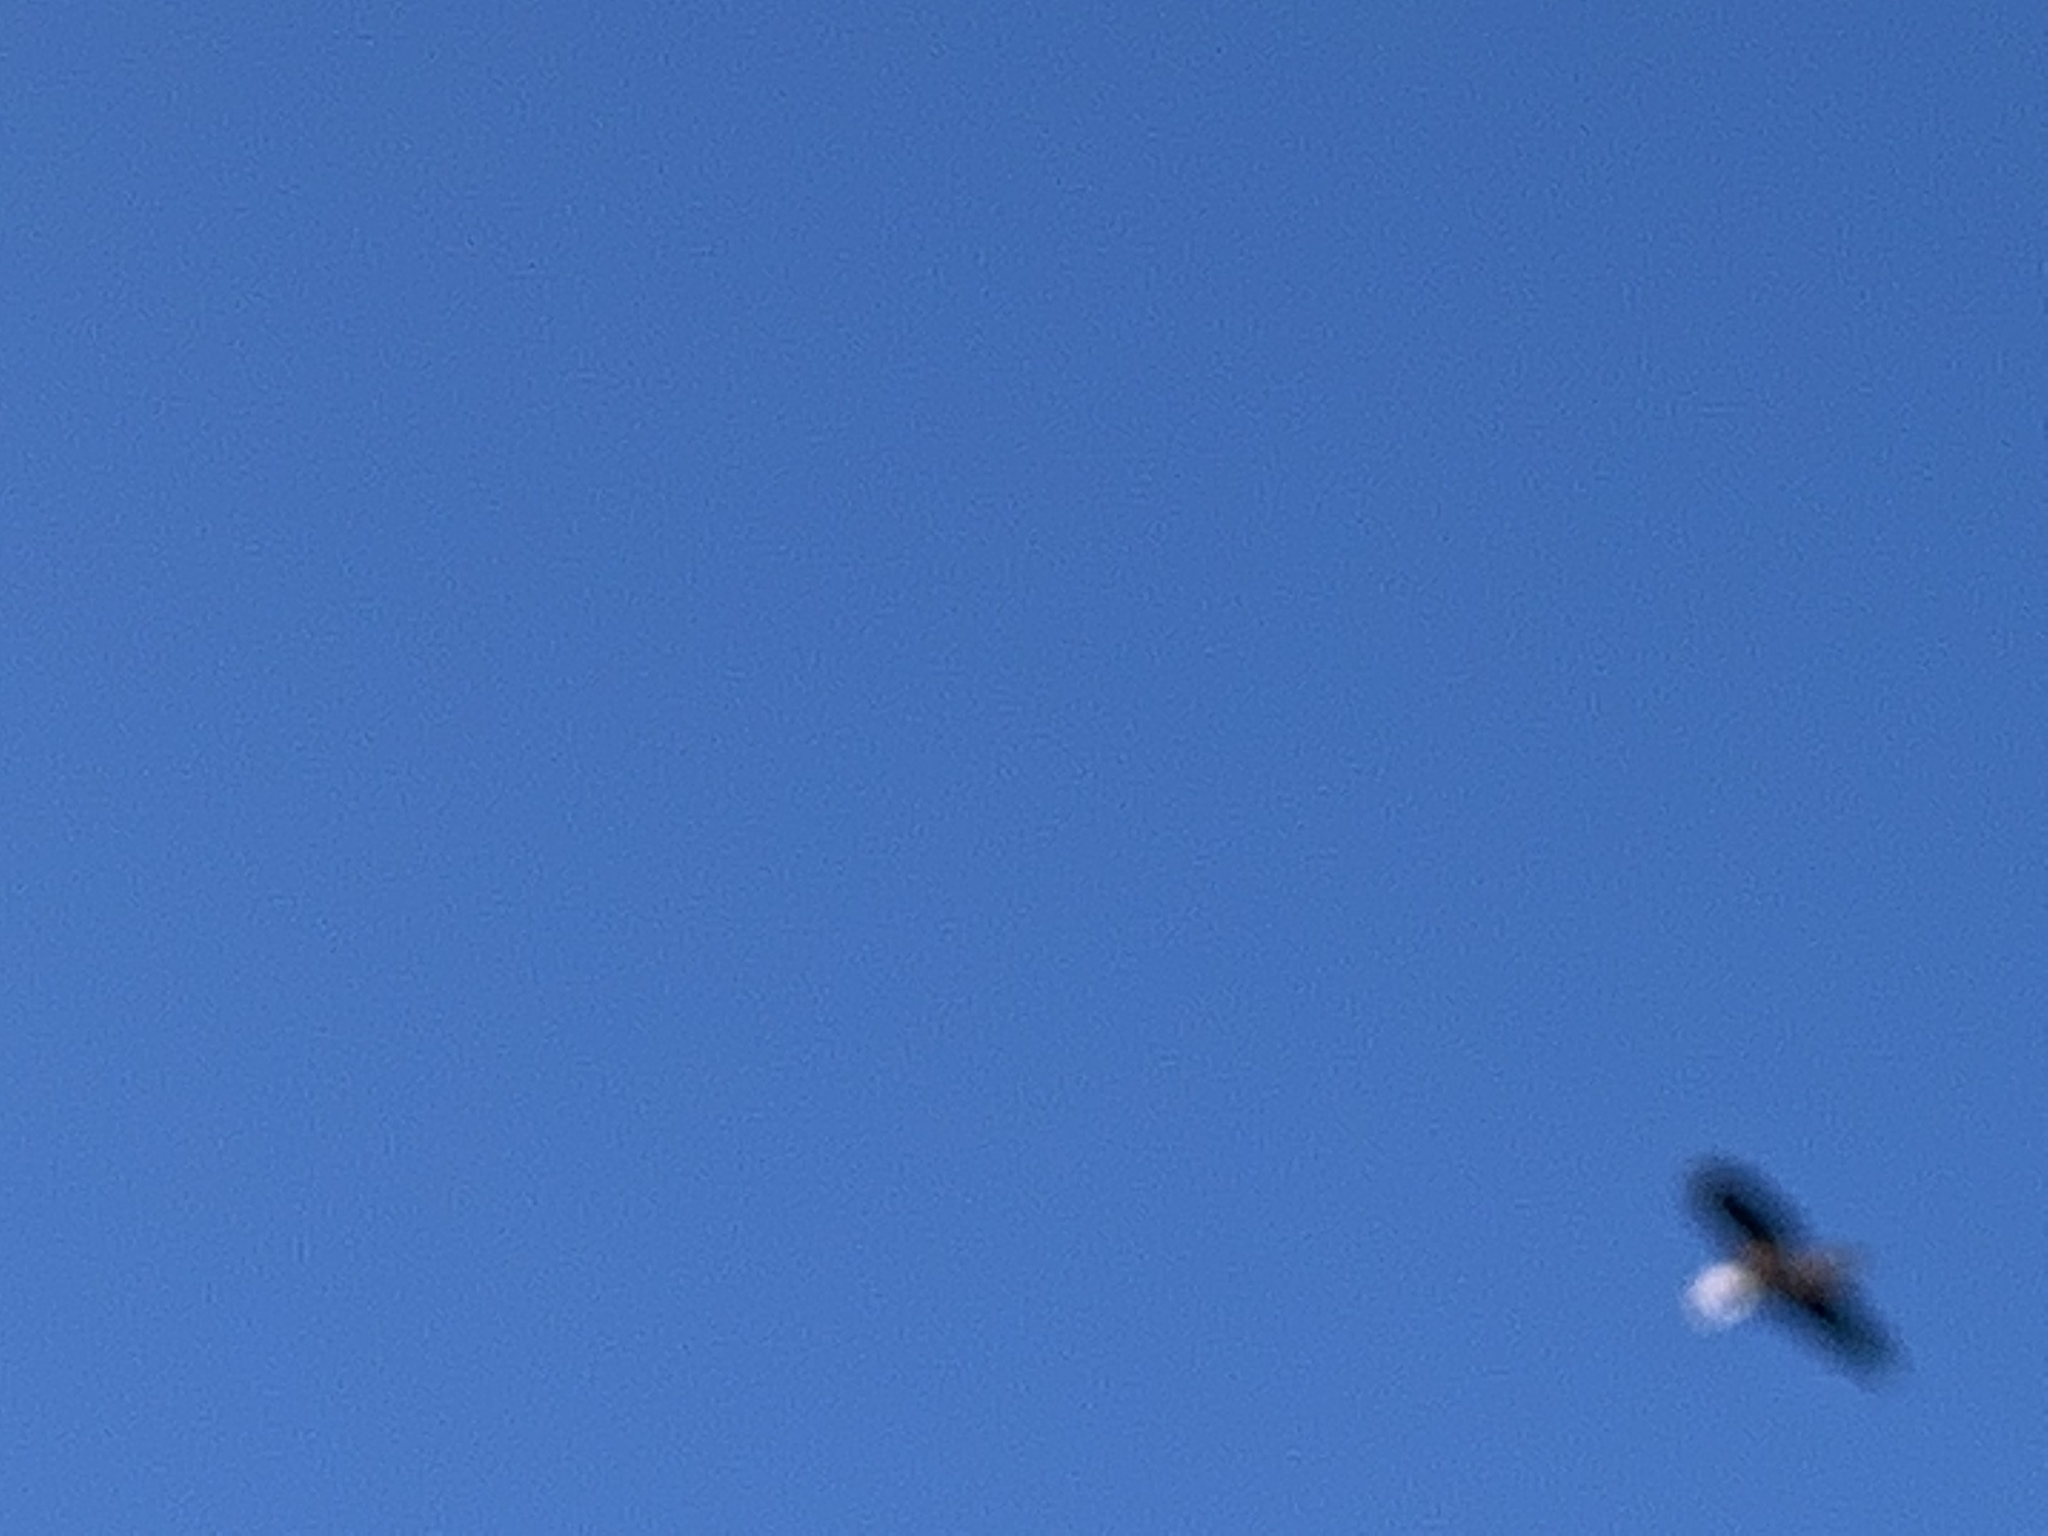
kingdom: Animalia
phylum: Chordata
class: Aves
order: Accipitriformes
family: Accipitridae
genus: Haliaeetus
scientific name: Haliaeetus leucocephalus
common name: Bald eagle
